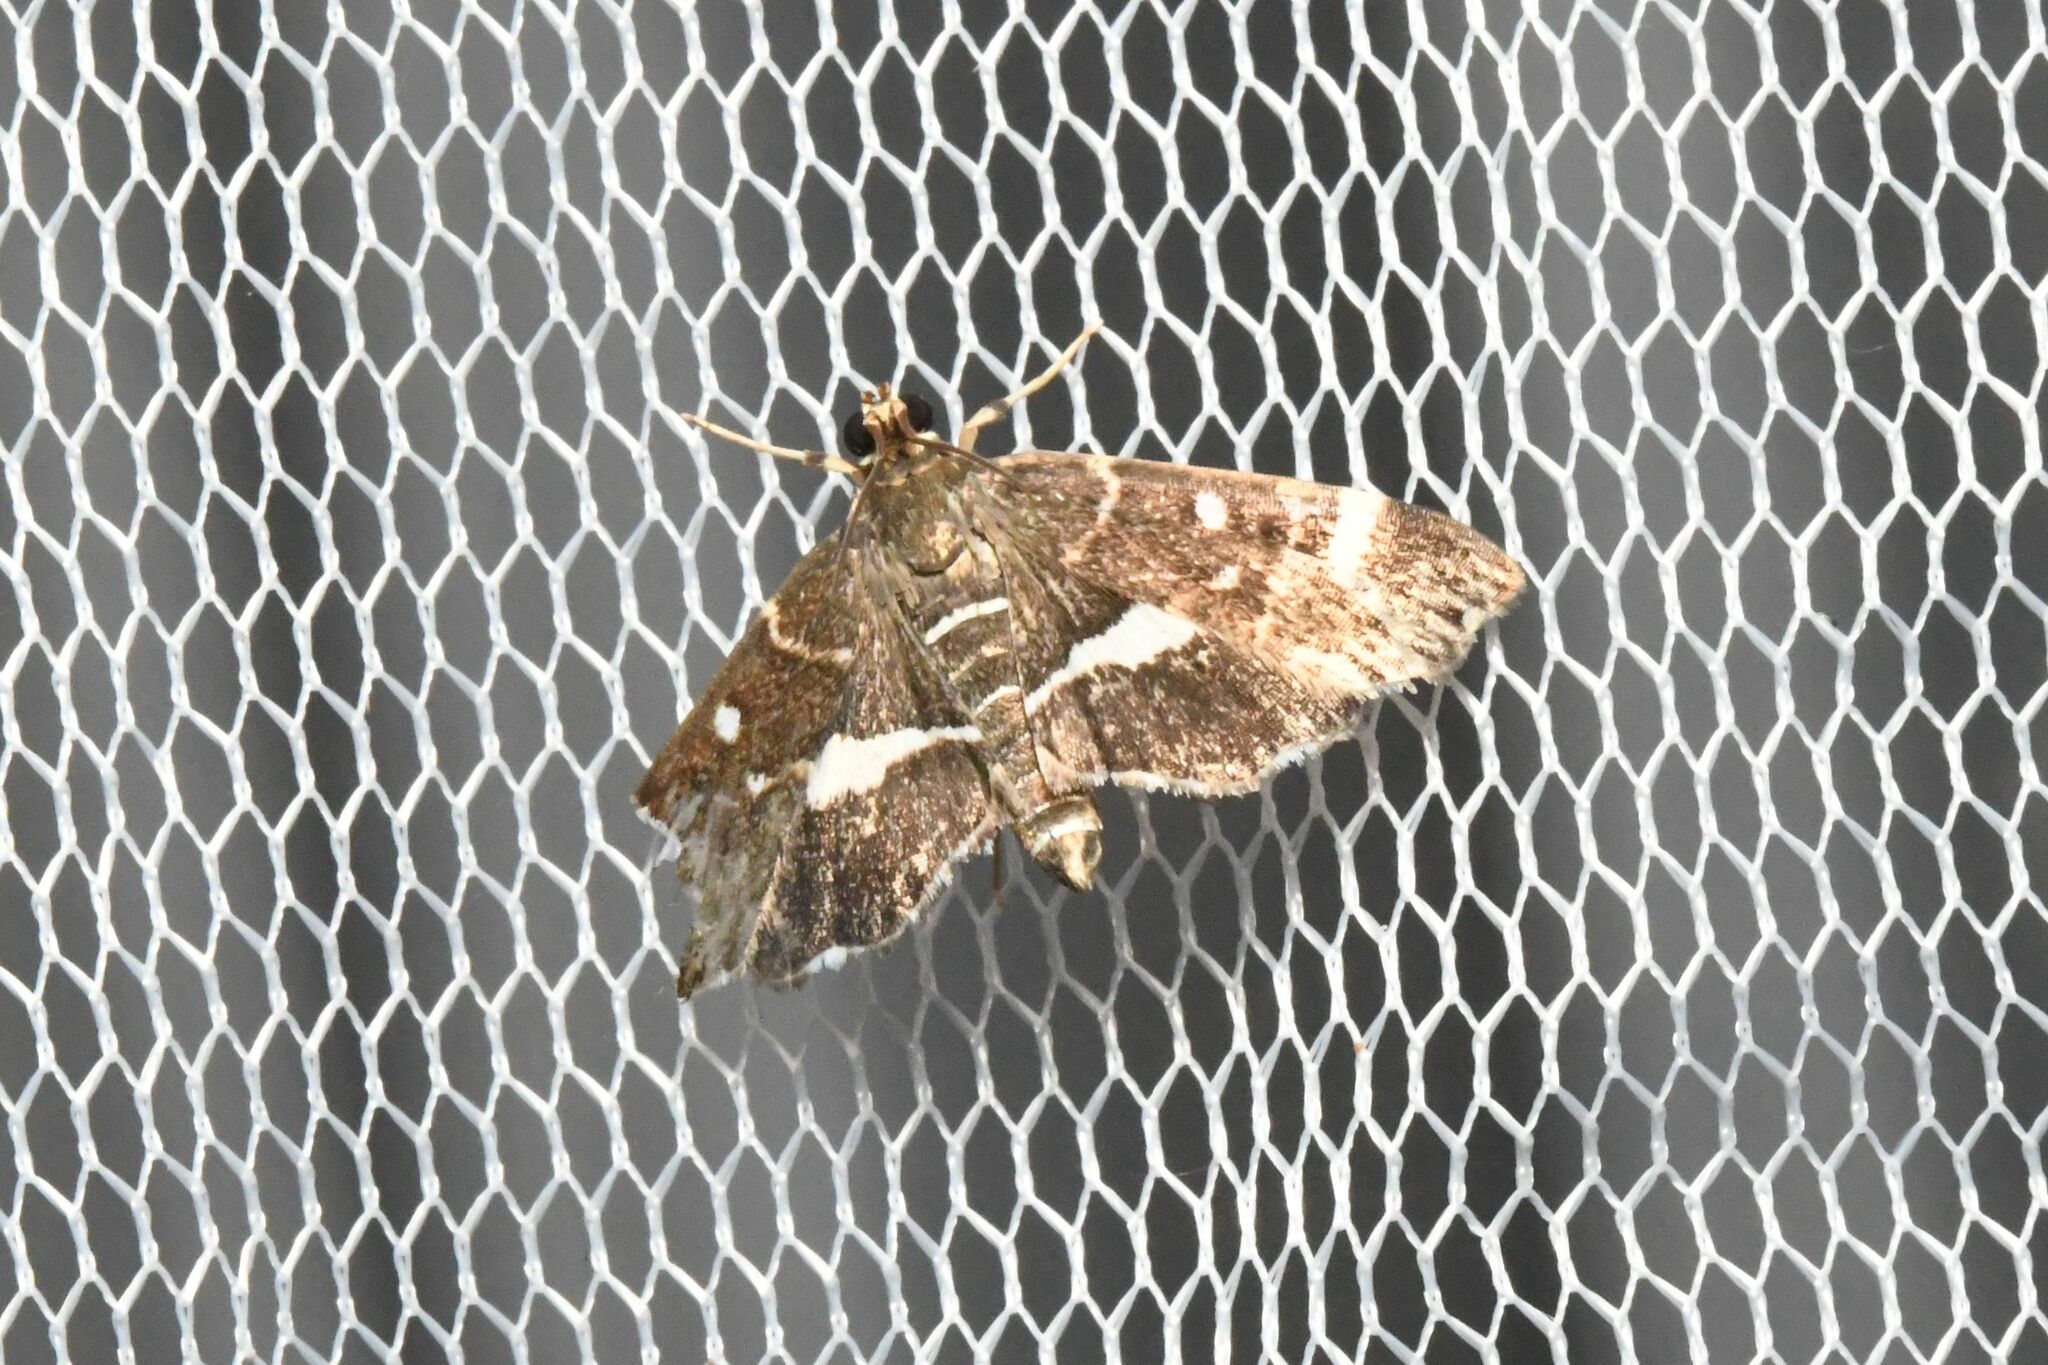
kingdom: Animalia
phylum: Arthropoda
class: Insecta
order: Lepidoptera
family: Crambidae
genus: Hymenia
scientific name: Hymenia perspectalis
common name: Spotted beet webworm
